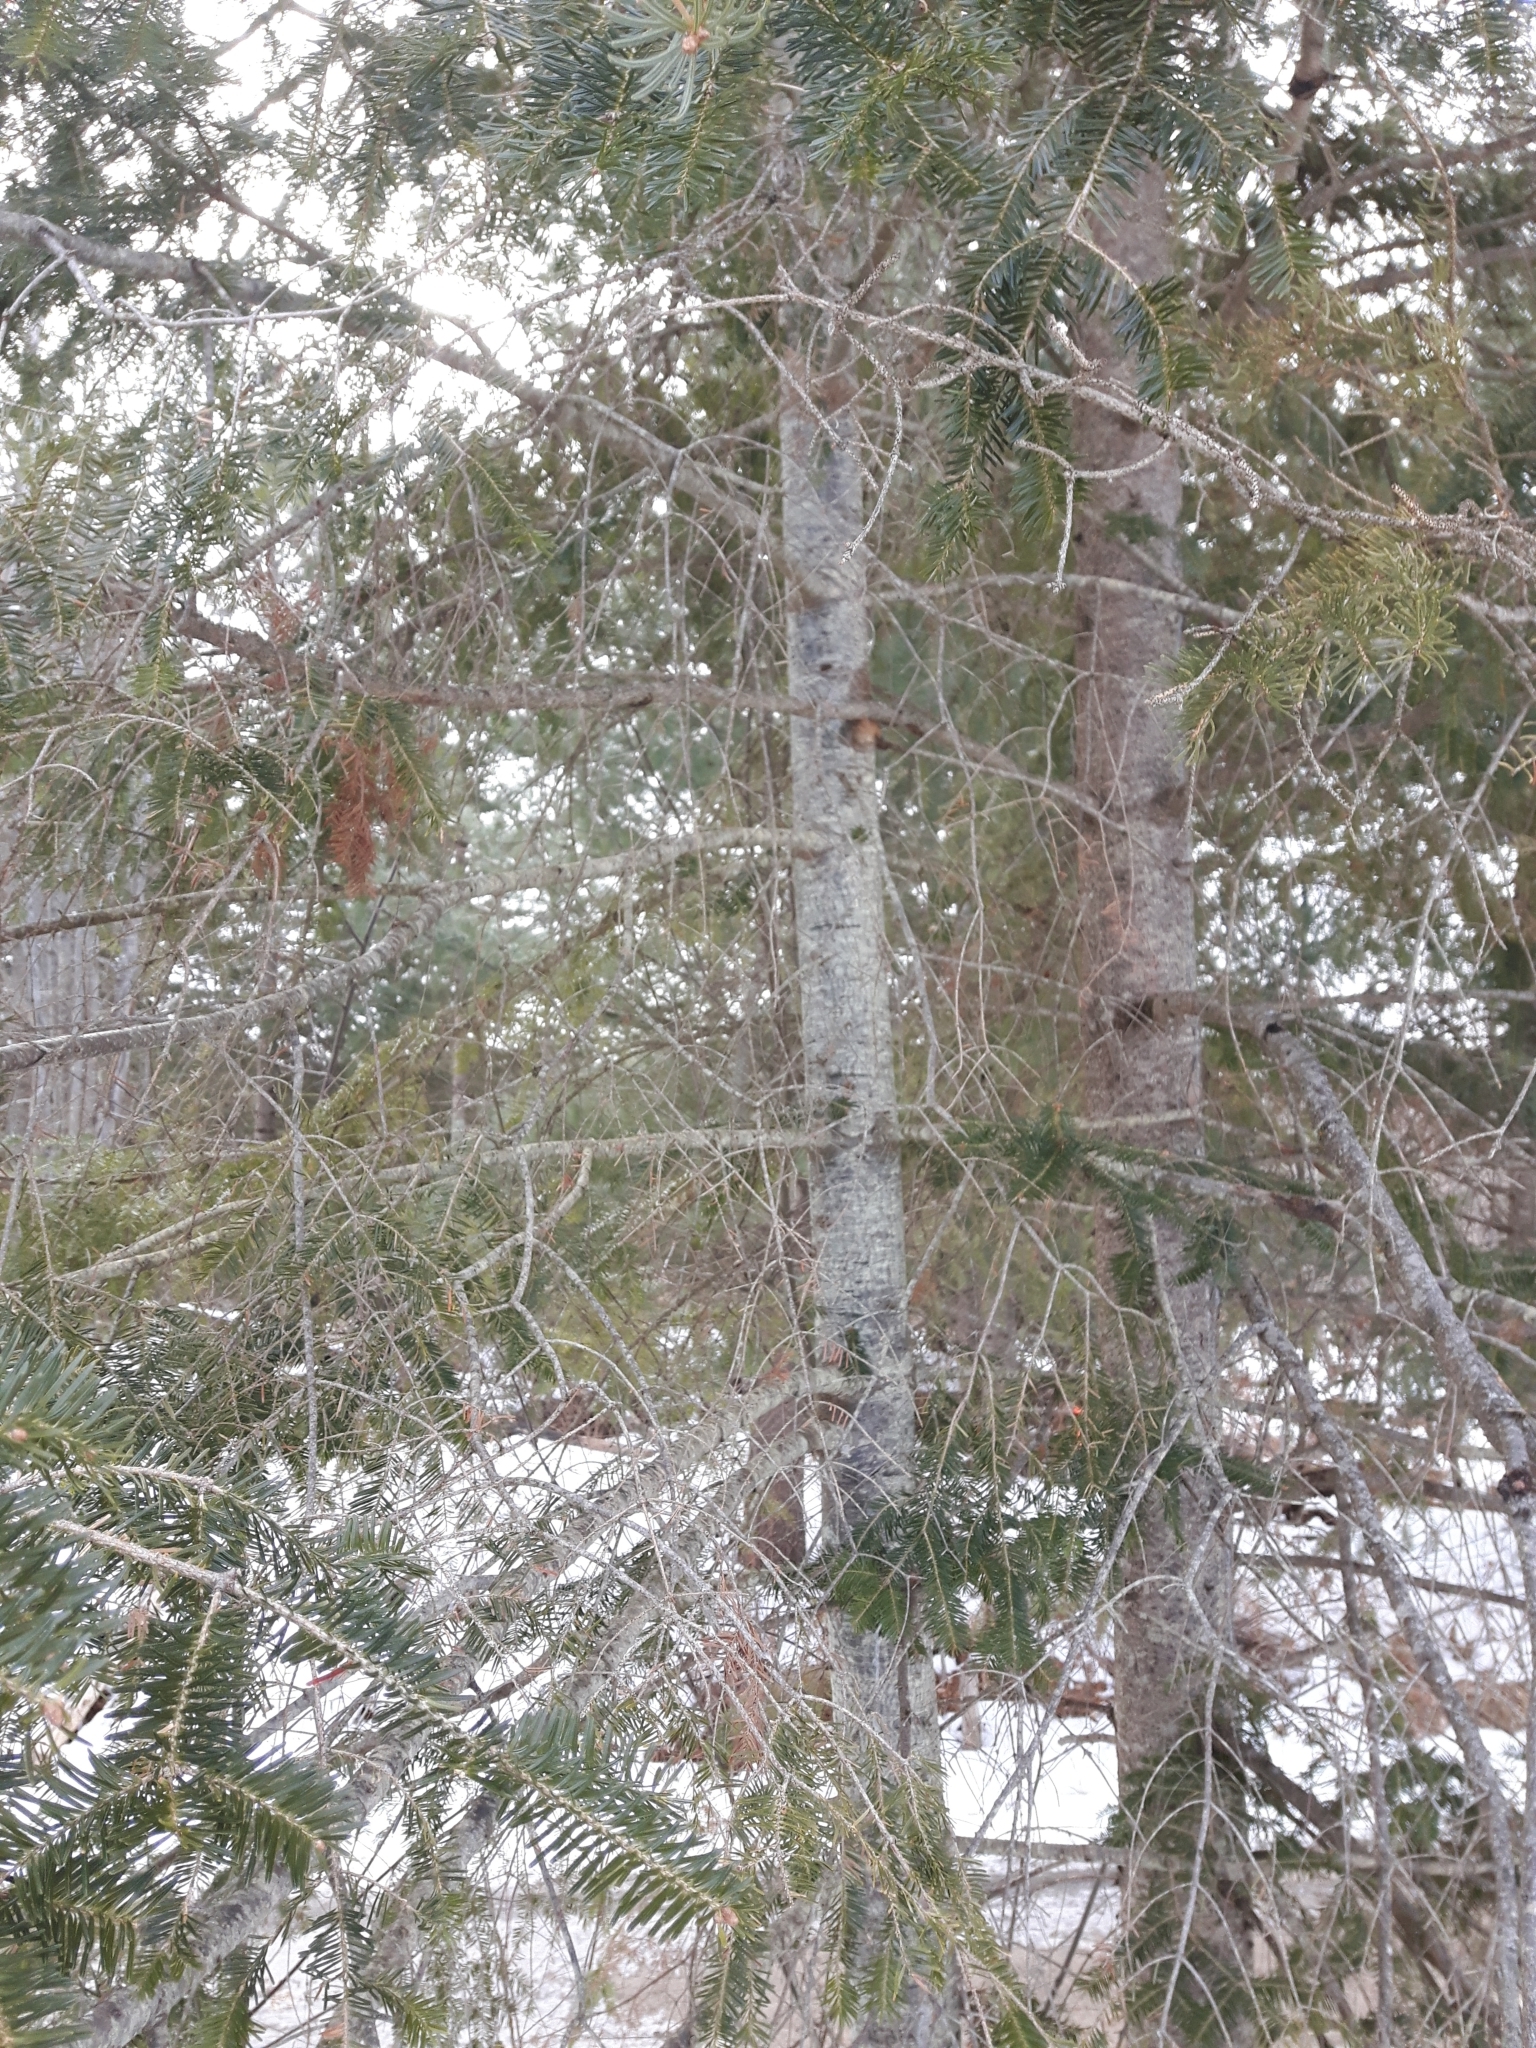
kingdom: Plantae
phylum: Tracheophyta
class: Pinopsida
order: Pinales
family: Pinaceae
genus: Abies
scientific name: Abies balsamea
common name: Balsam fir
